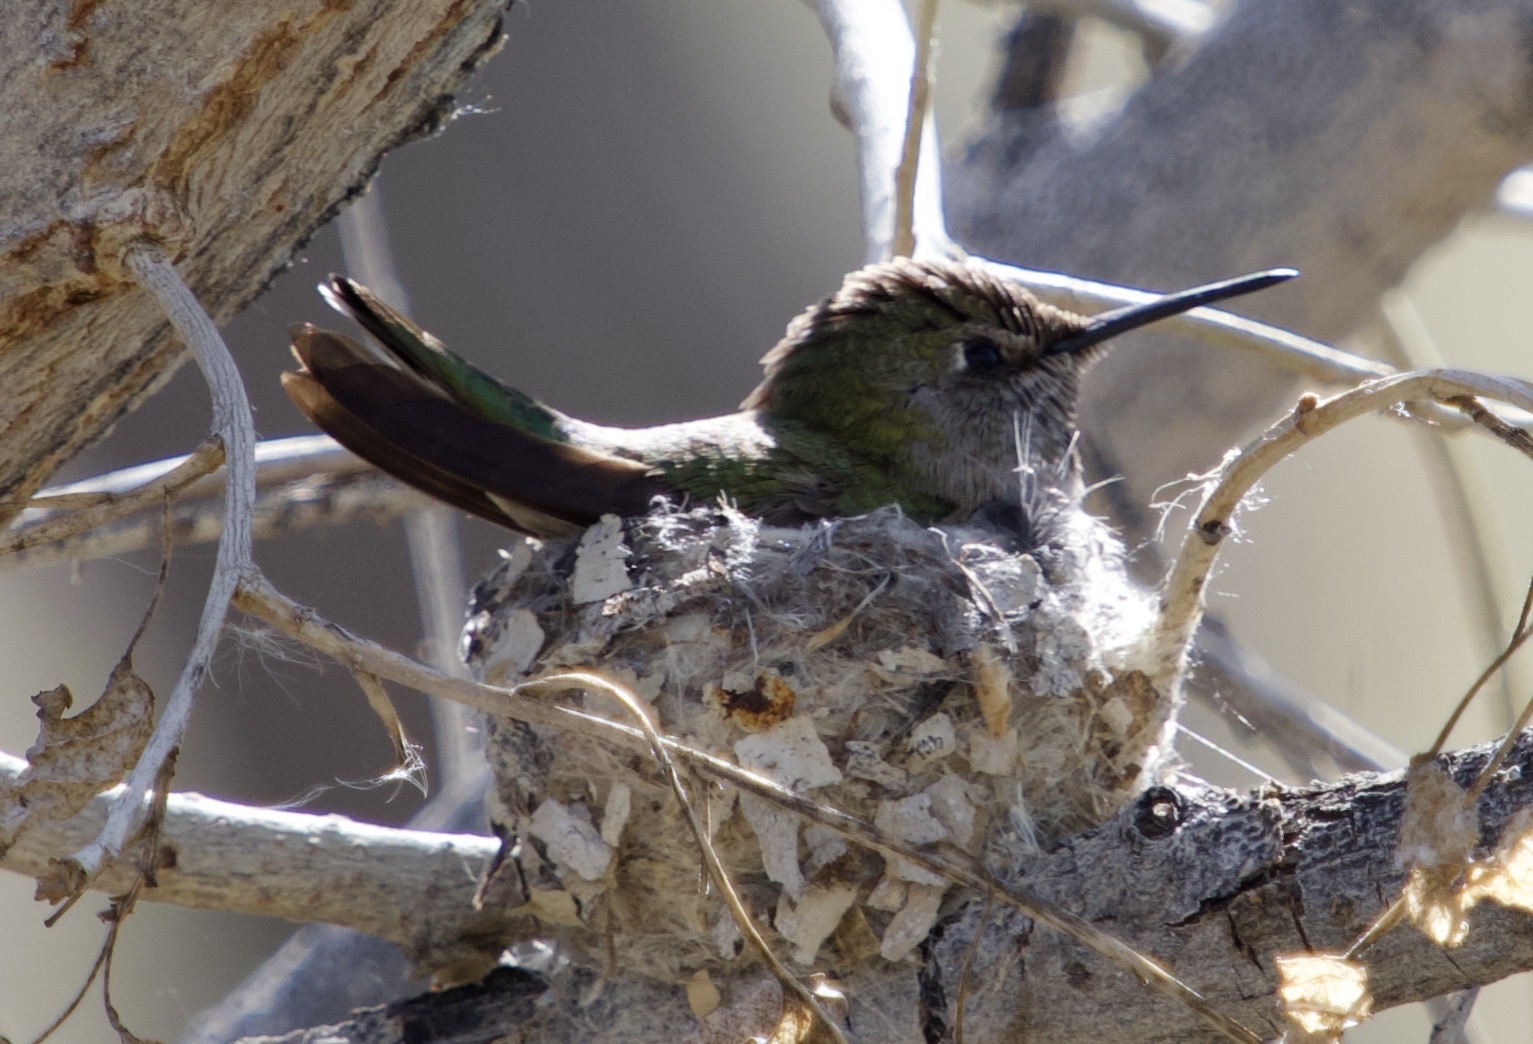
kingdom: Animalia
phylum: Chordata
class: Aves
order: Apodiformes
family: Trochilidae
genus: Calypte
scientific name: Calypte anna
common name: Anna's hummingbird
